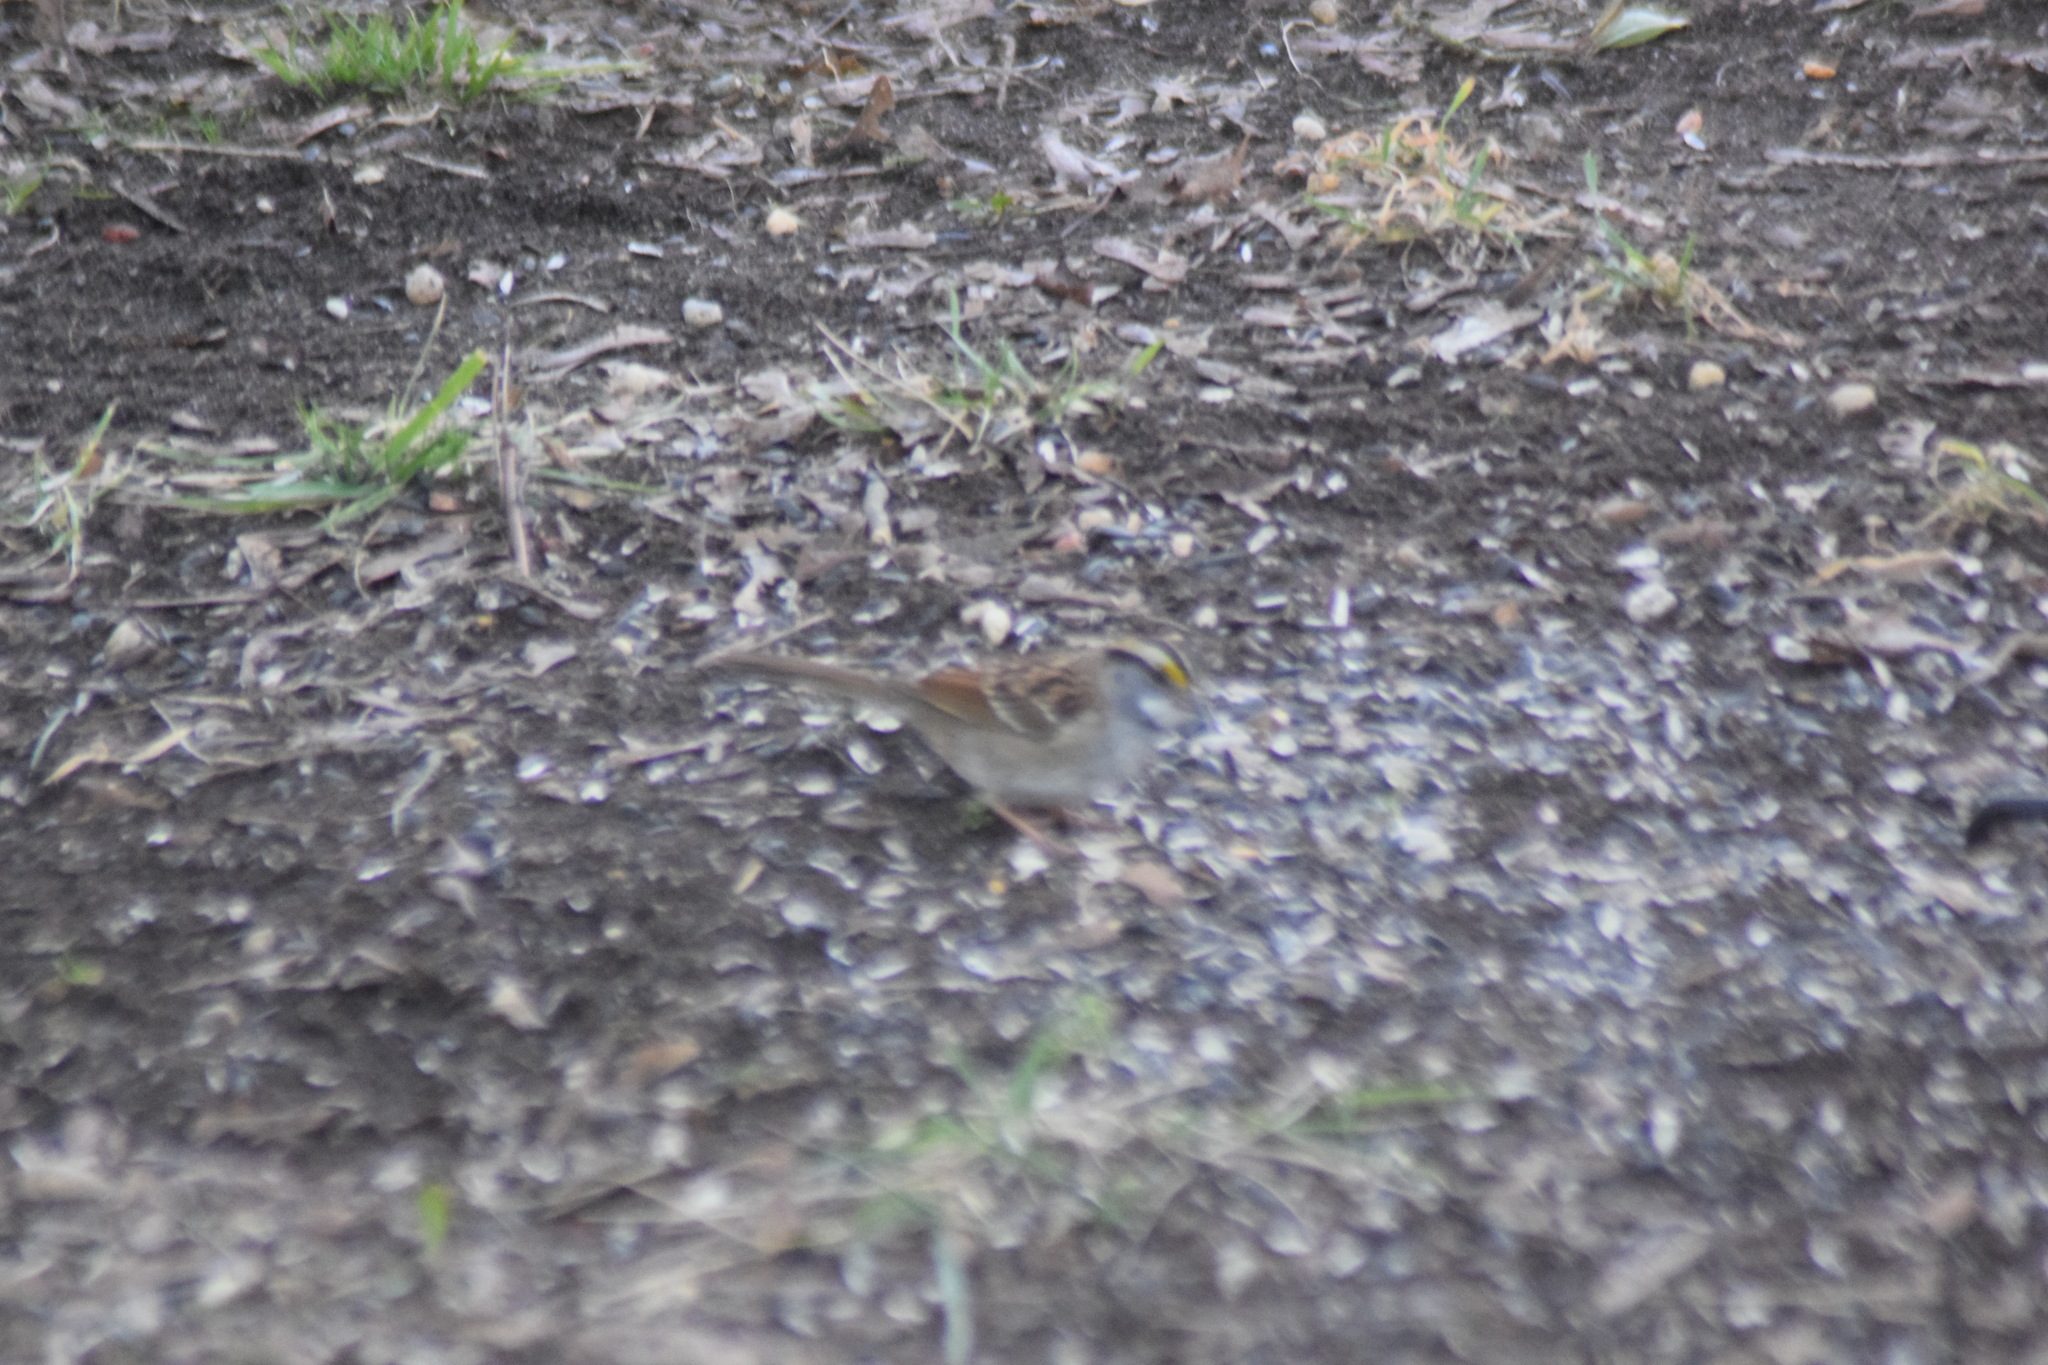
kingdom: Animalia
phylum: Chordata
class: Aves
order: Passeriformes
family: Passerellidae
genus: Zonotrichia
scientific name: Zonotrichia albicollis
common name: White-throated sparrow
